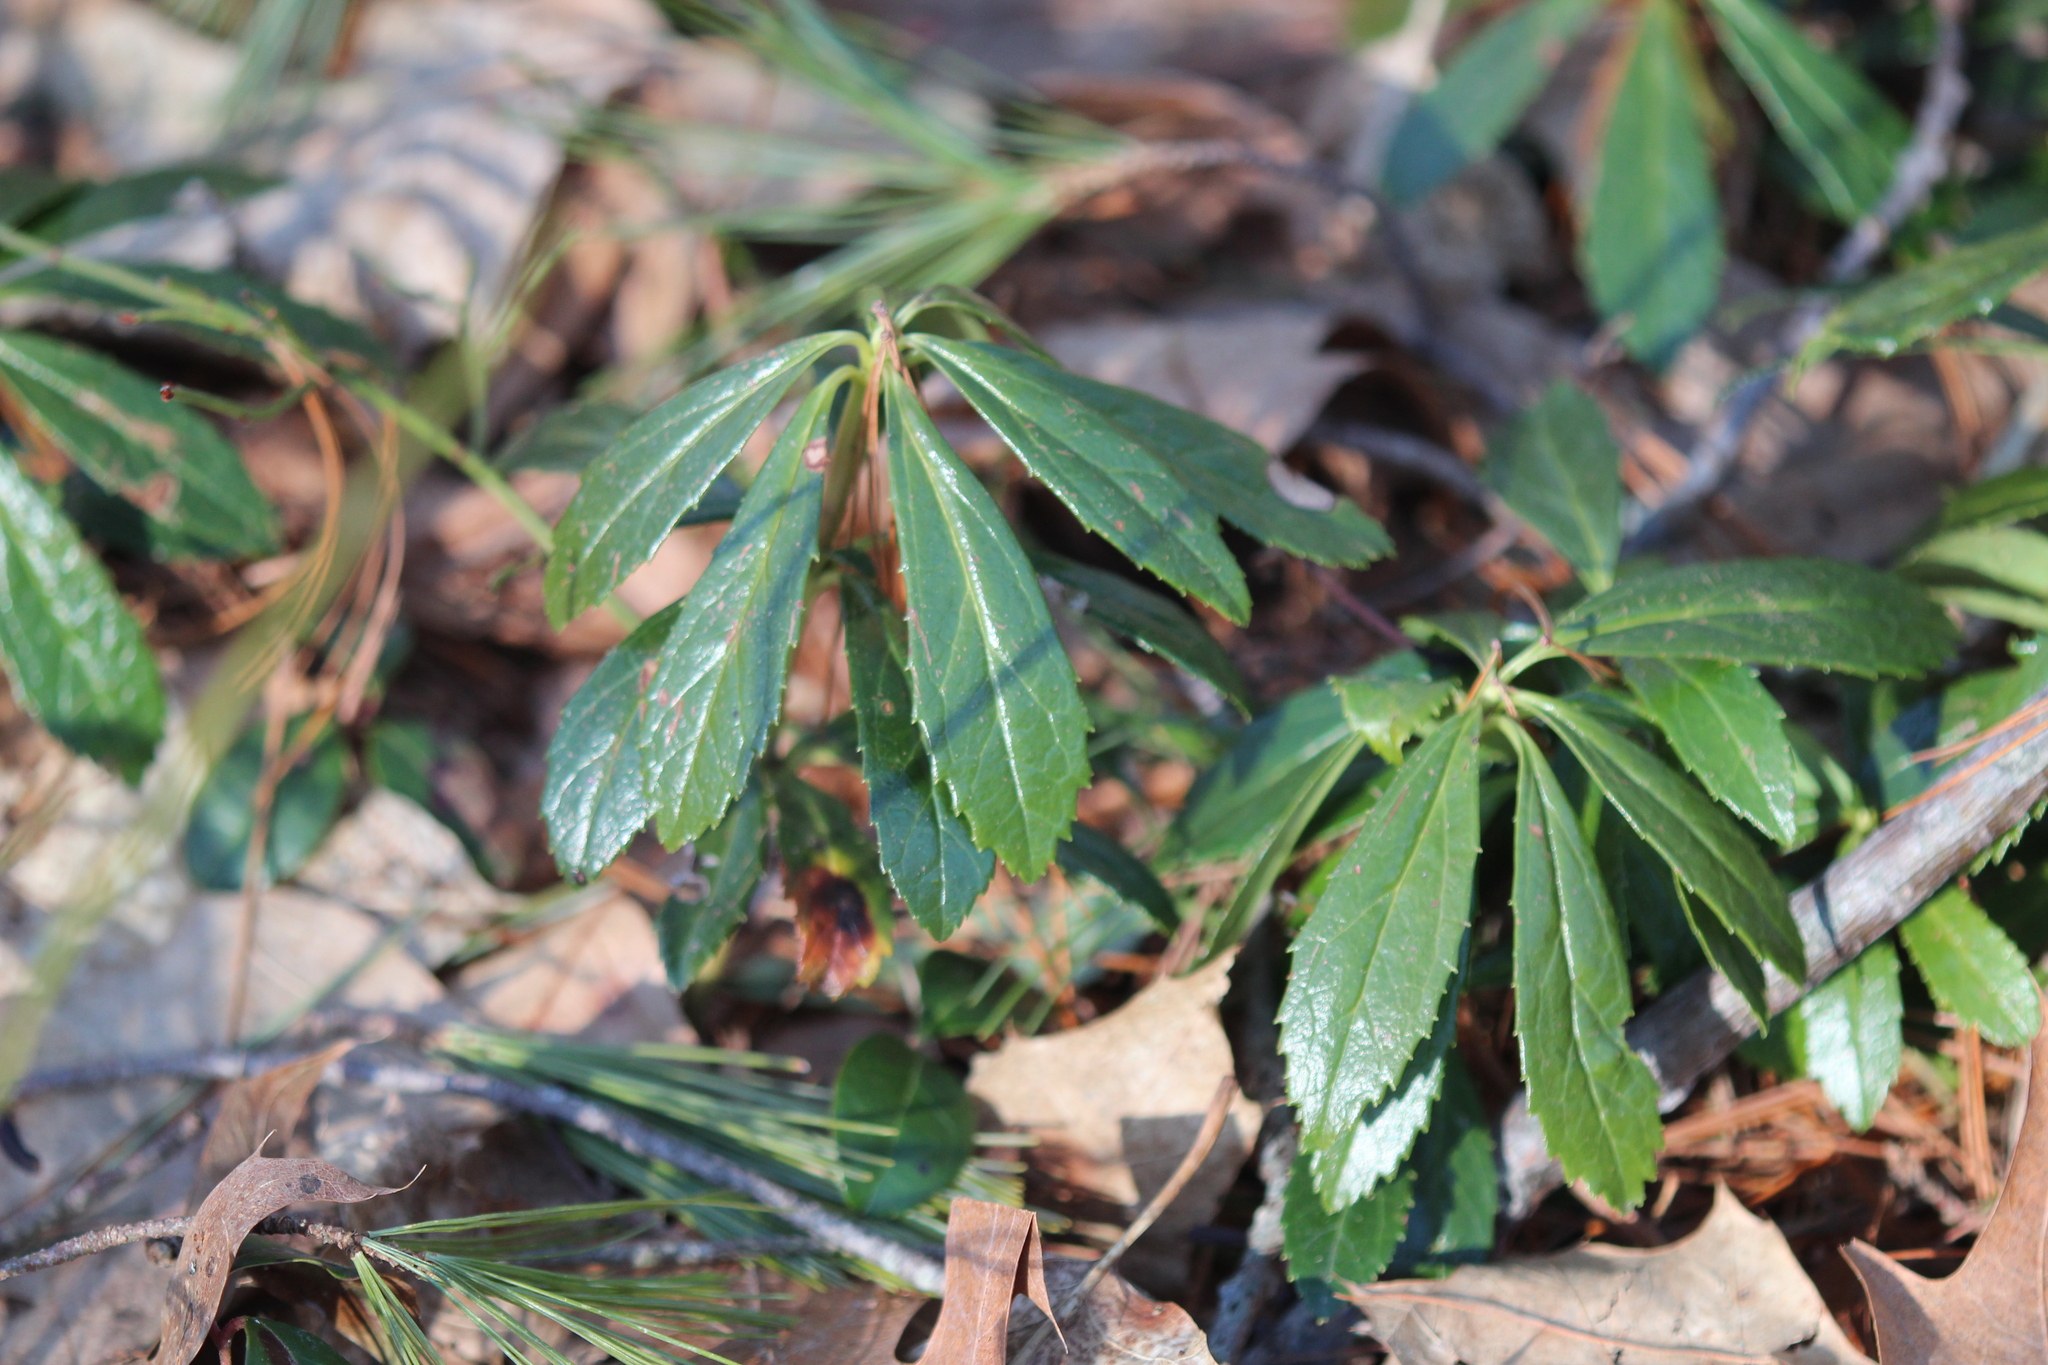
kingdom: Plantae
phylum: Tracheophyta
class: Magnoliopsida
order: Ericales
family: Ericaceae
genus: Chimaphila
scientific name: Chimaphila umbellata
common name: Pipsissewa
